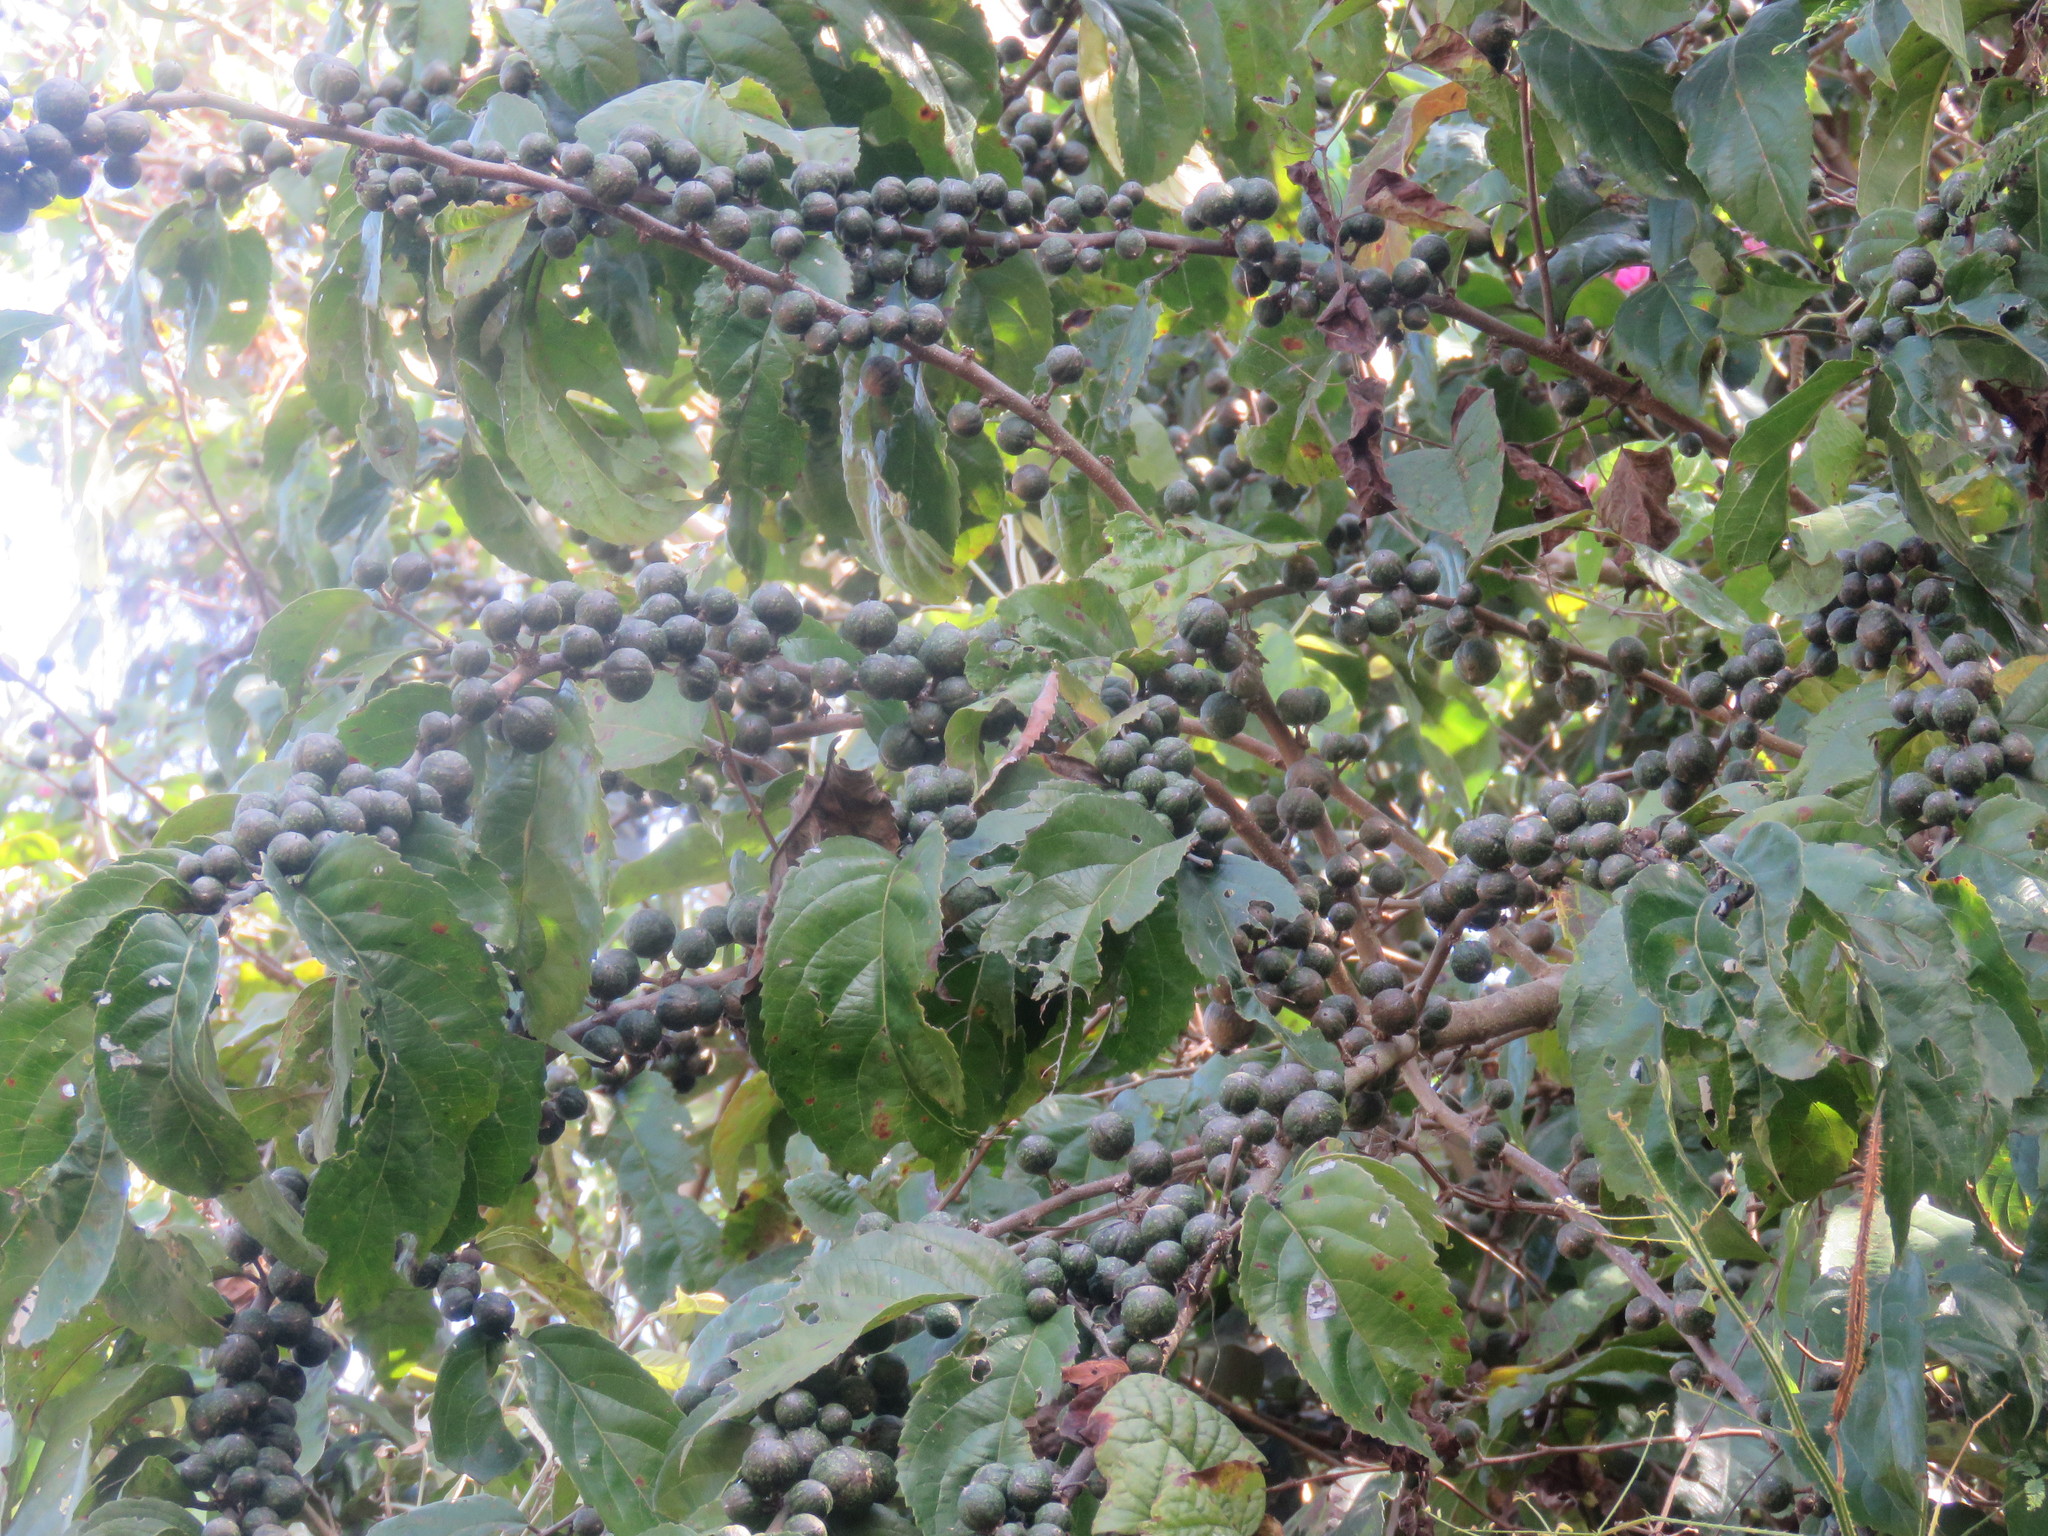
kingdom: Plantae
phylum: Tracheophyta
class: Magnoliopsida
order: Malpighiales
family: Salicaceae
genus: Casearia
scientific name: Casearia arguta
